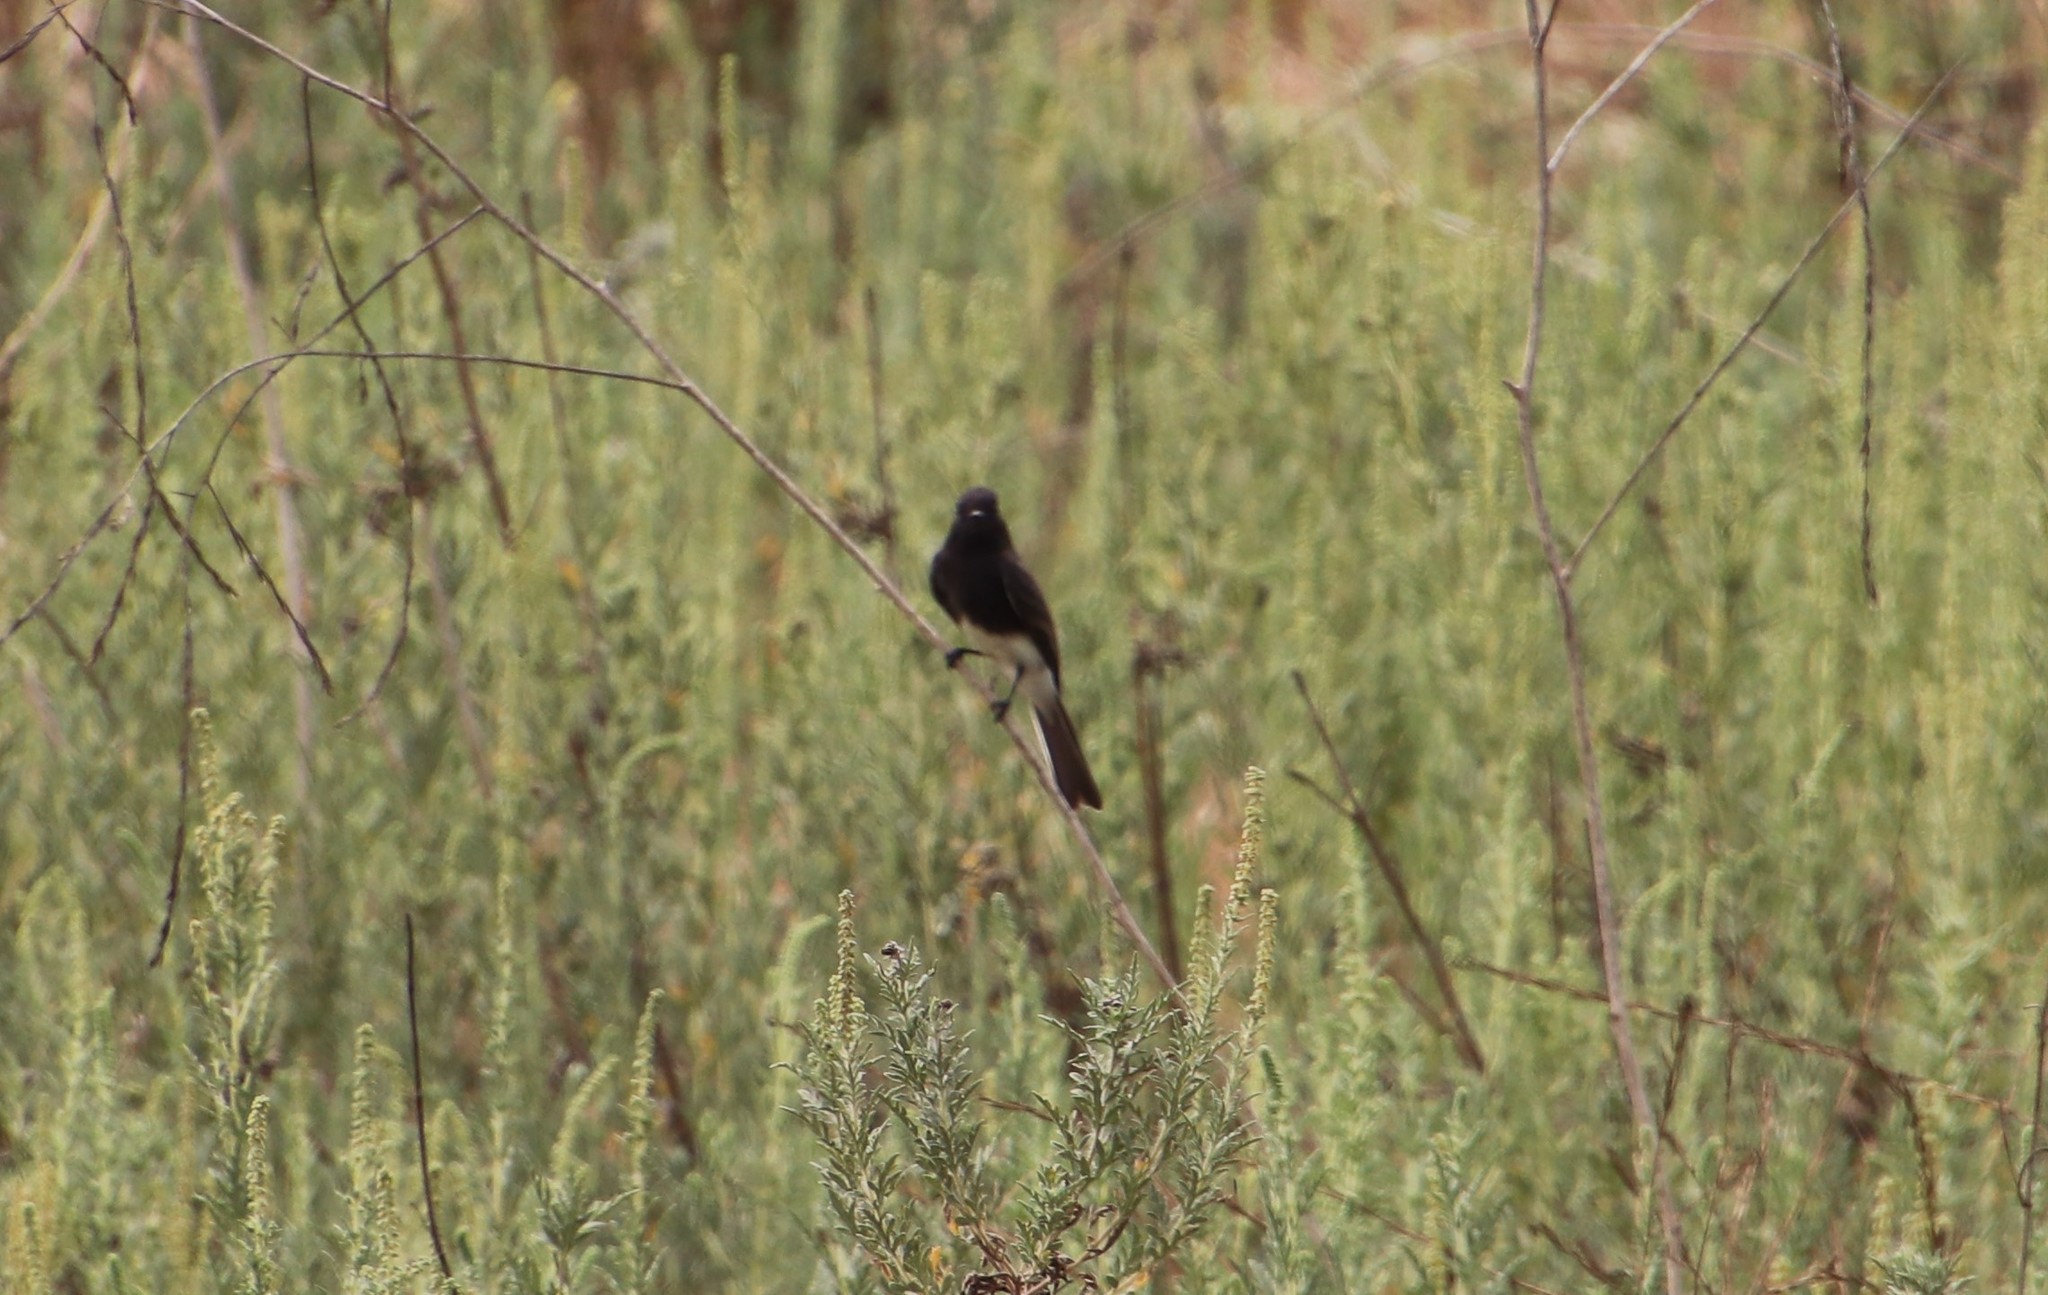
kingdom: Animalia
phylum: Chordata
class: Aves
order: Passeriformes
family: Tyrannidae
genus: Sayornis
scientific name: Sayornis nigricans
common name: Black phoebe
